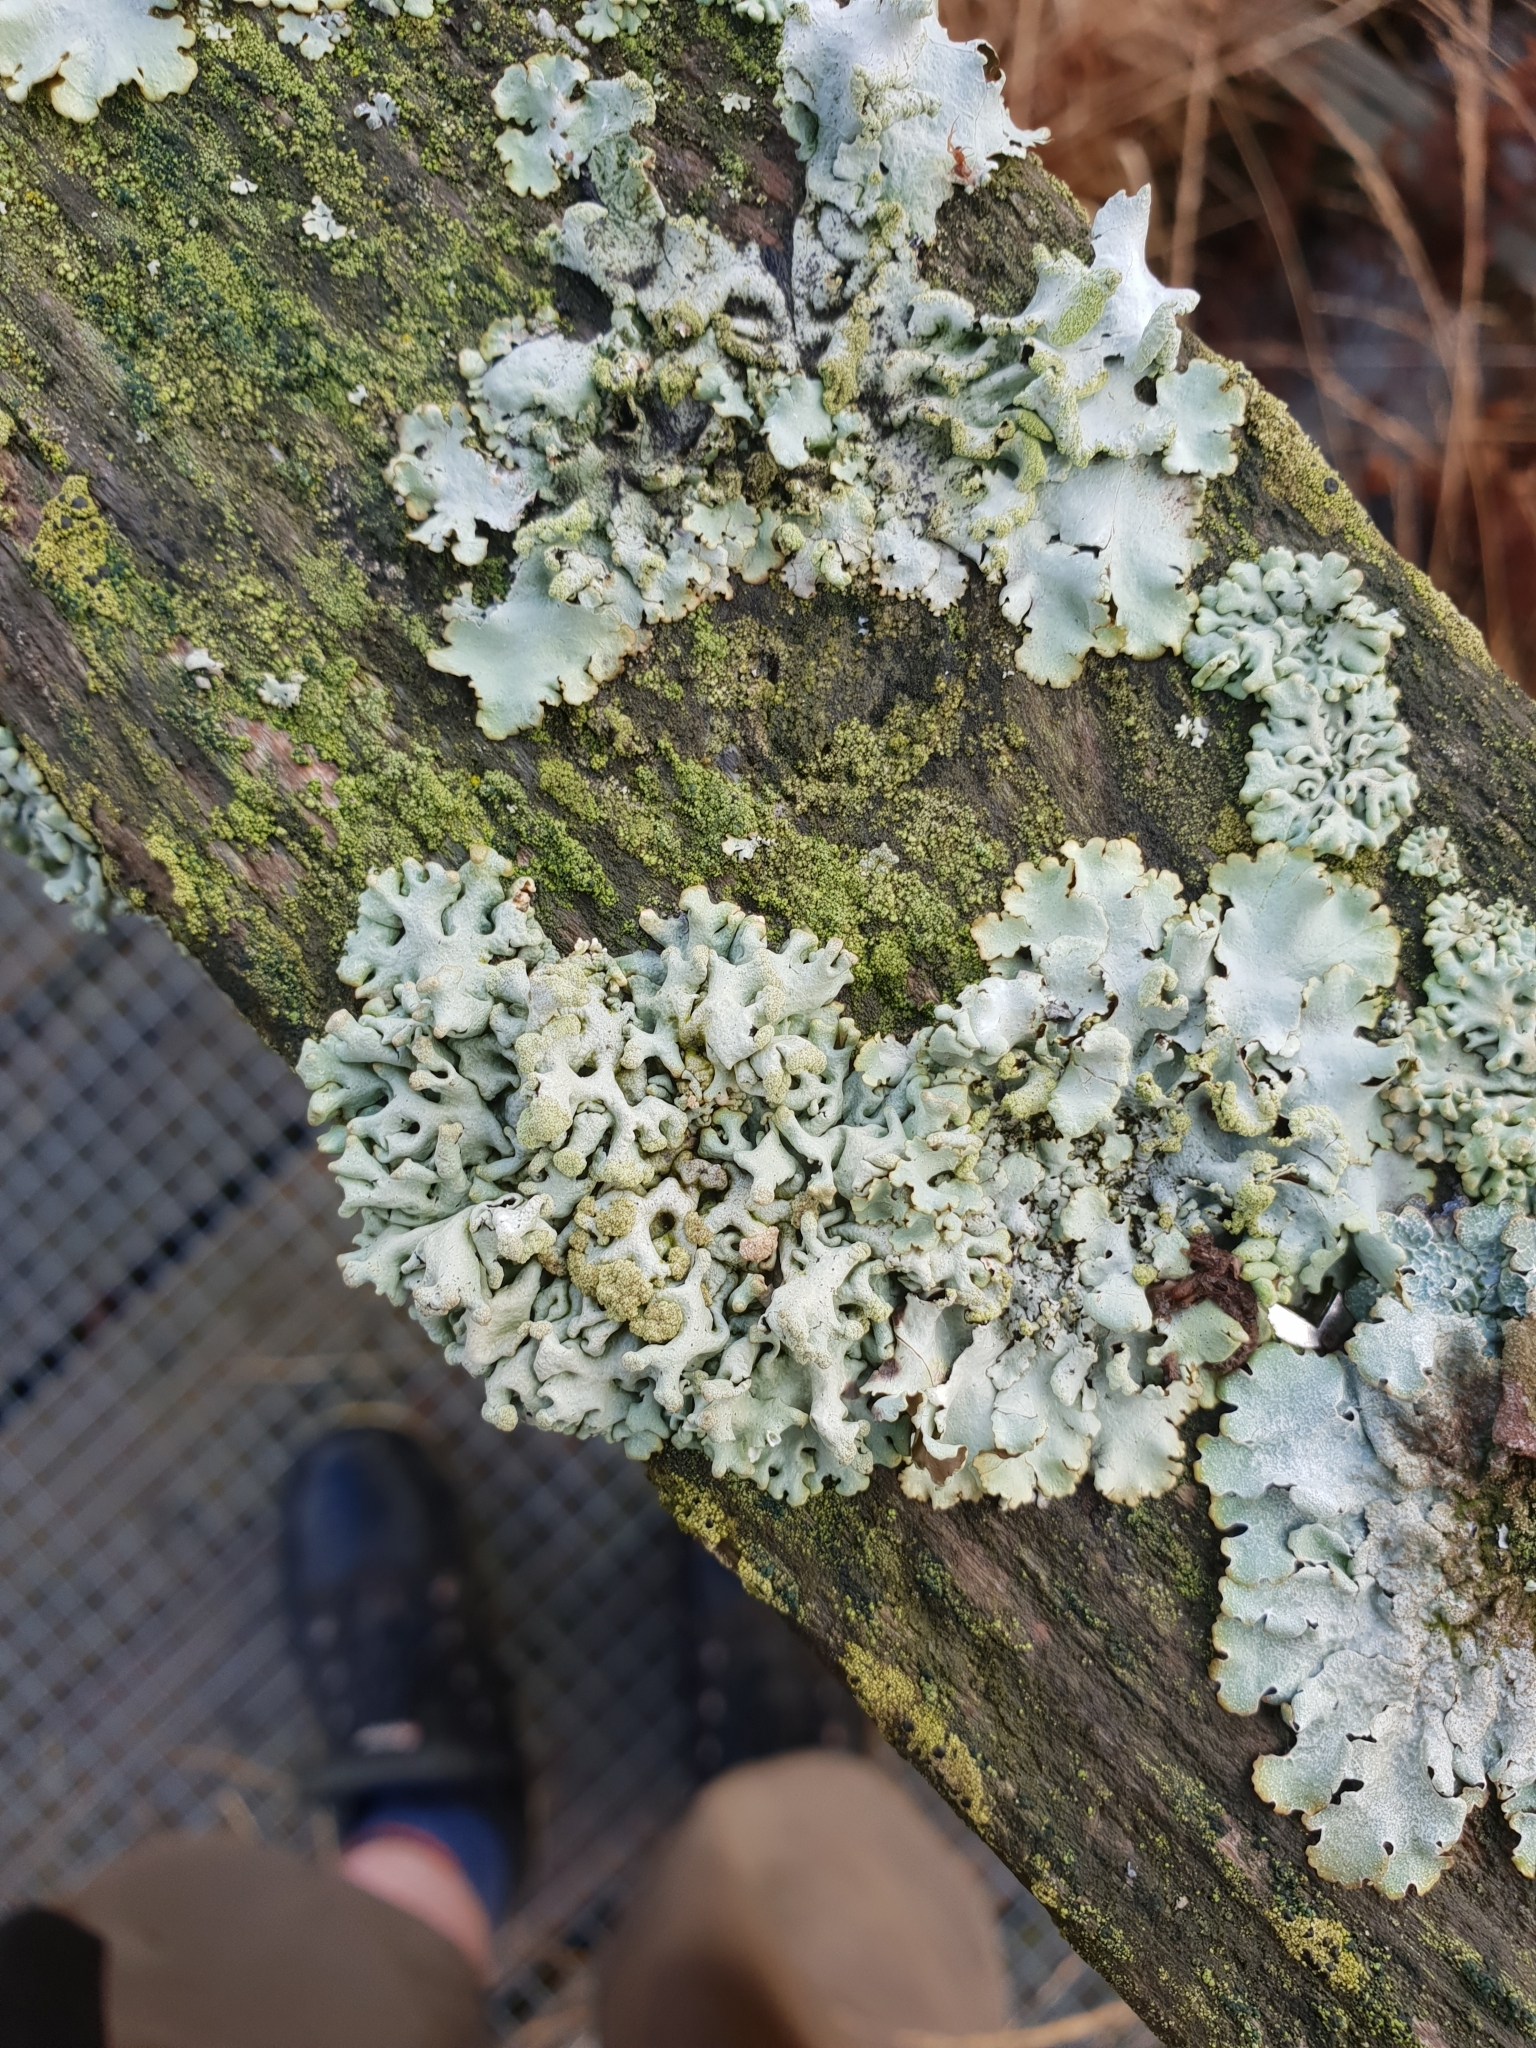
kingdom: Fungi
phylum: Ascomycota
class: Lecanoromycetes
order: Lecanorales
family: Parmeliaceae
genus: Hypogymnia
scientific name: Hypogymnia tubulosa
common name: Powder-headed tube lichen
